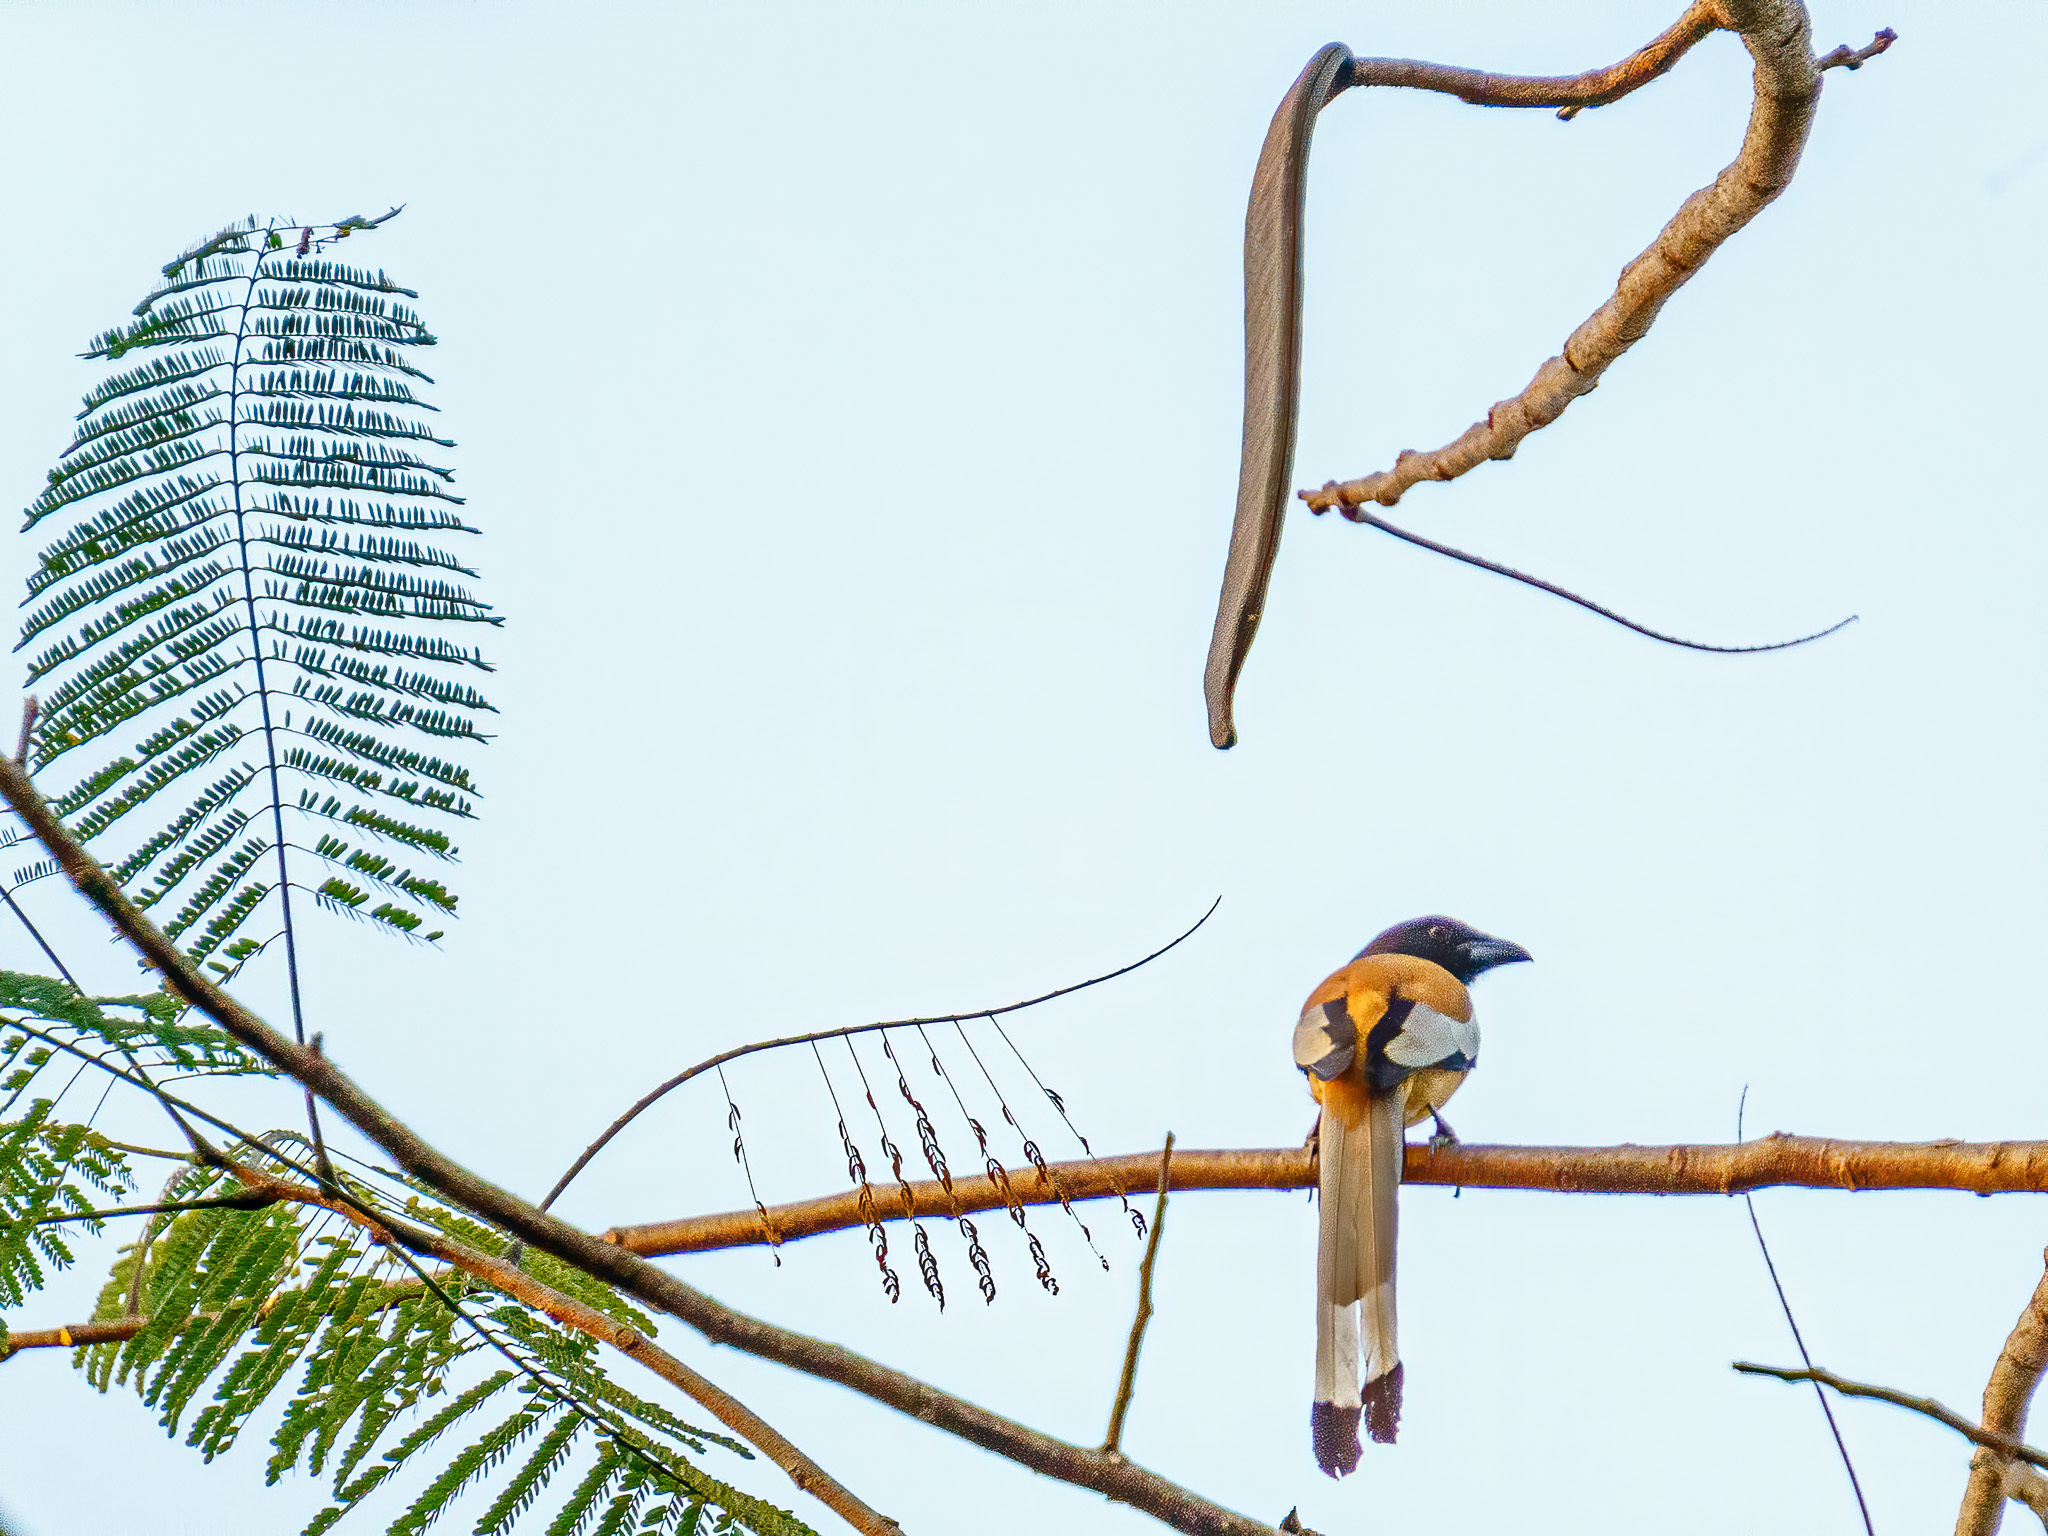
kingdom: Animalia
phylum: Chordata
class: Aves
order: Passeriformes
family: Corvidae
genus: Dendrocitta
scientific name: Dendrocitta vagabunda
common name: Rufous treepie
